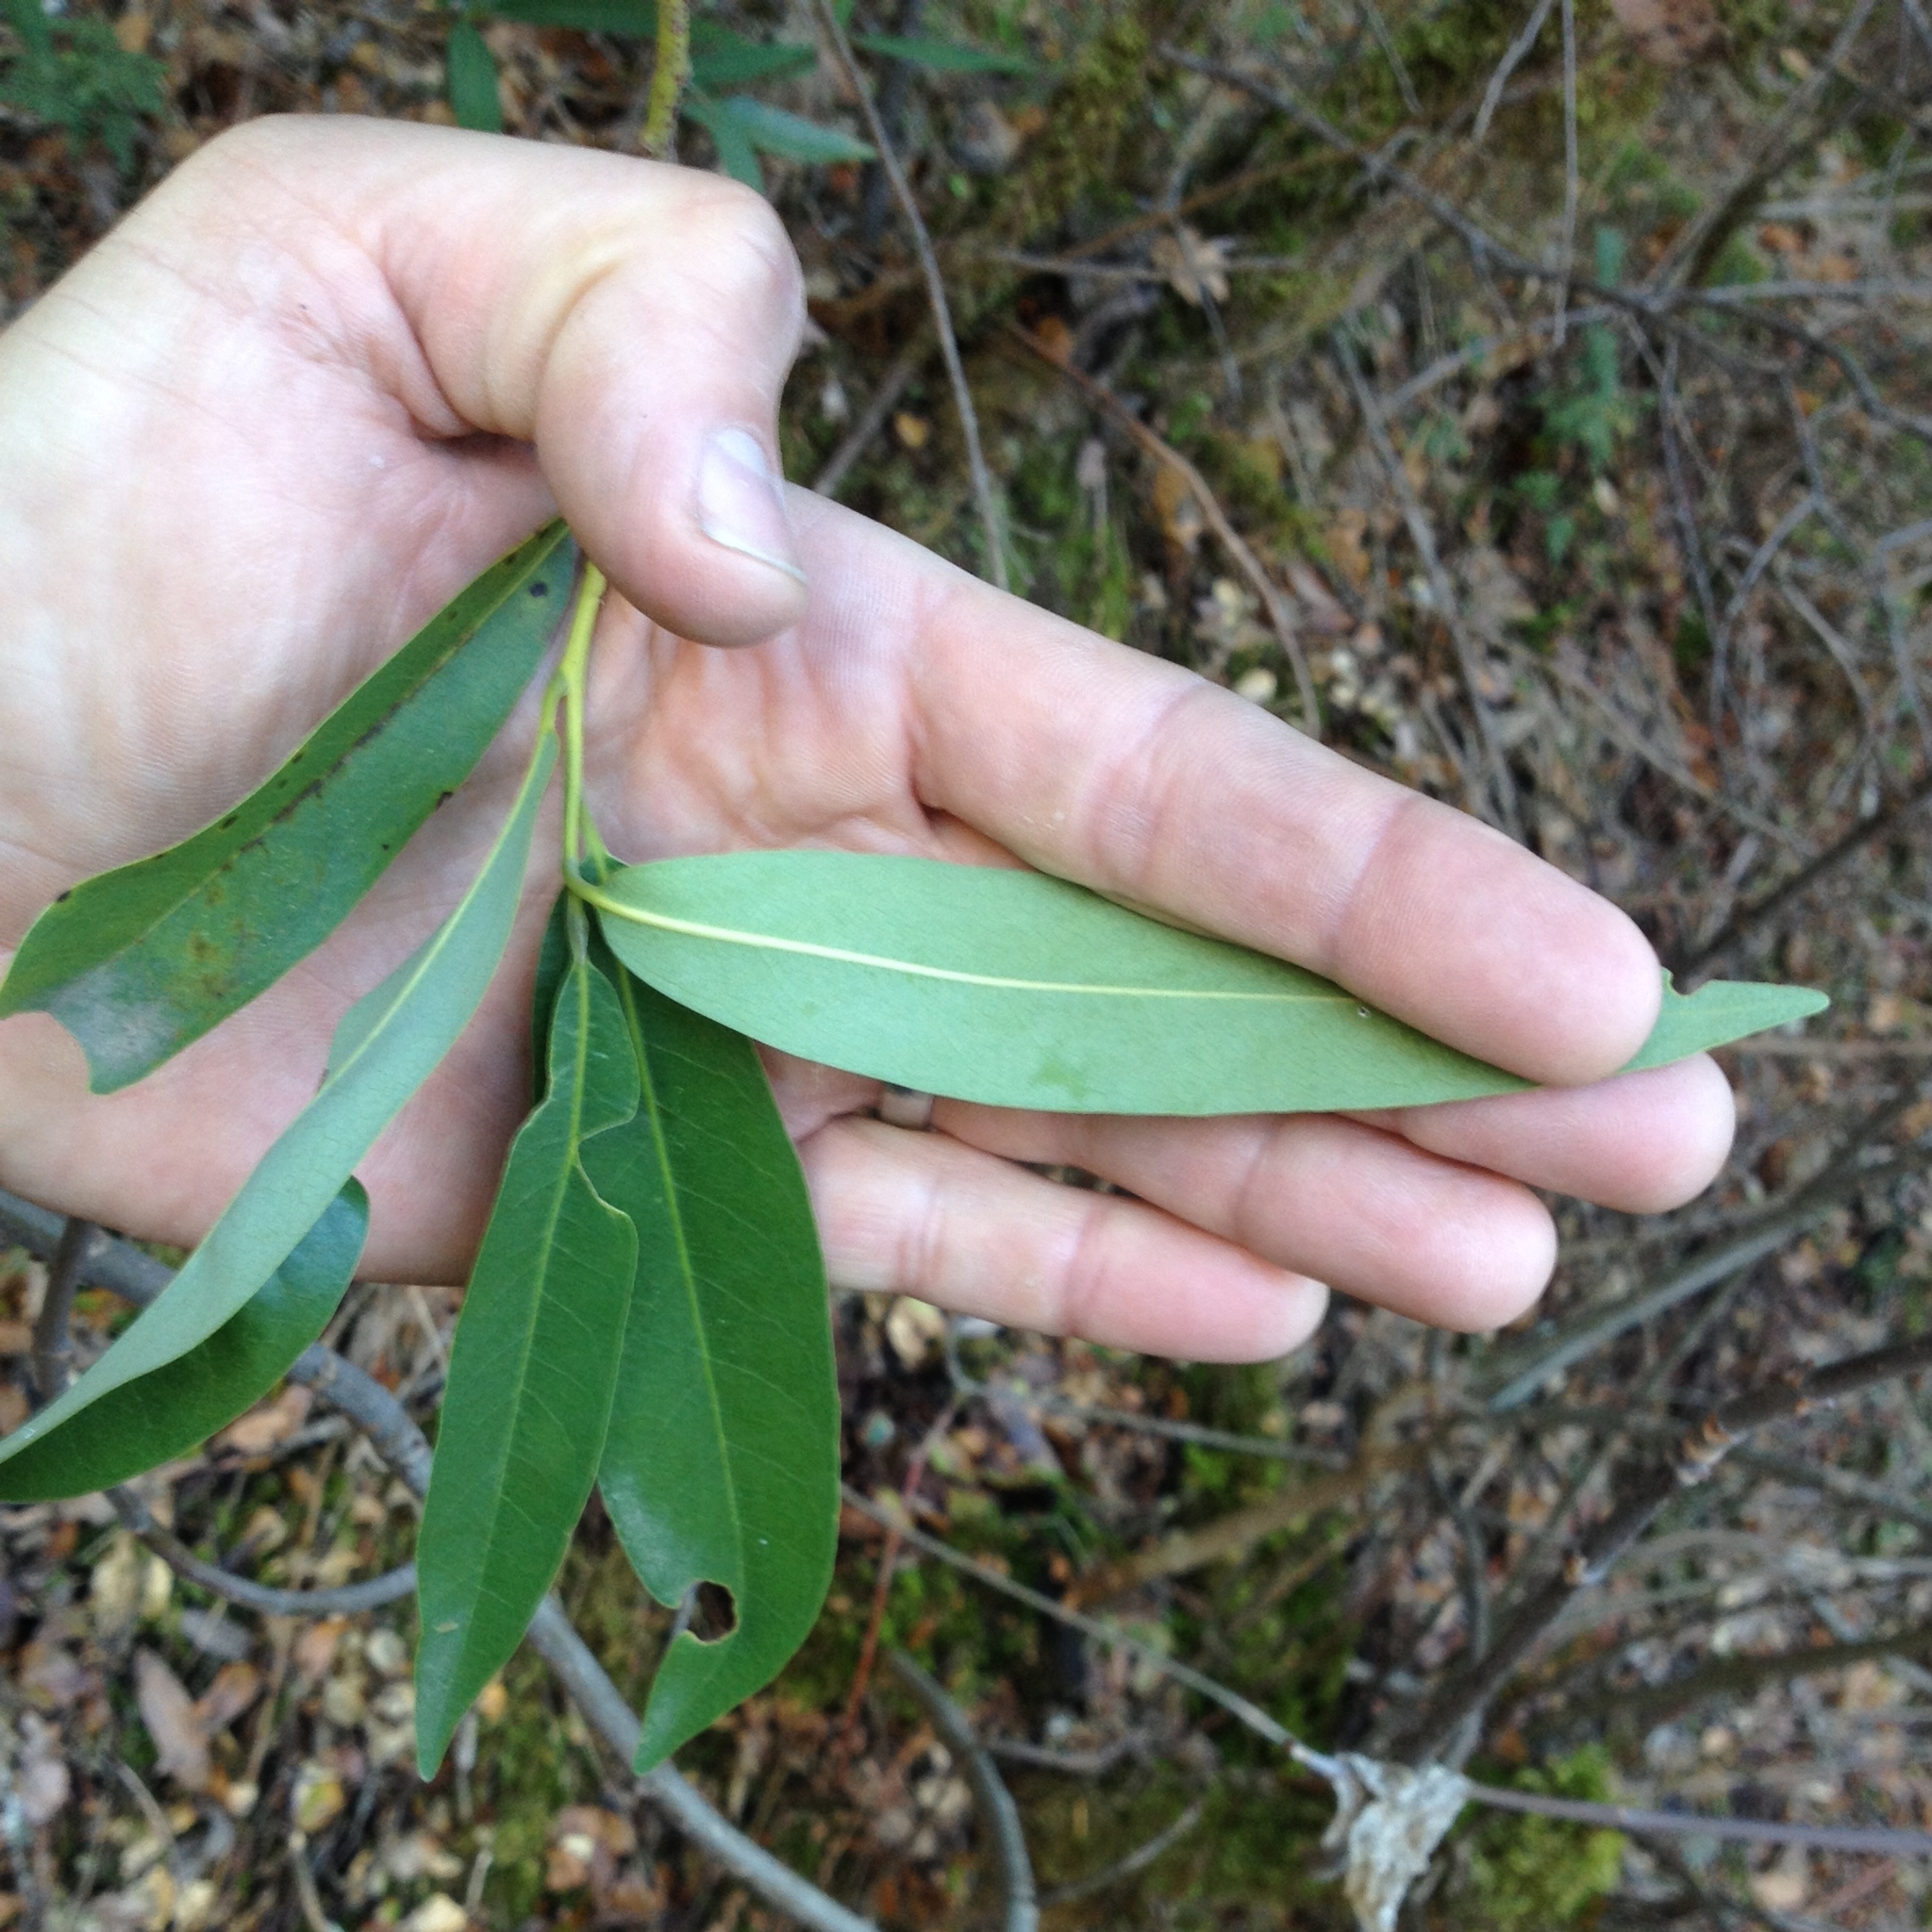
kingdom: Plantae
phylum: Tracheophyta
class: Magnoliopsida
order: Laurales
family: Lauraceae
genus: Umbellularia
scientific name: Umbellularia californica
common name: California bay
